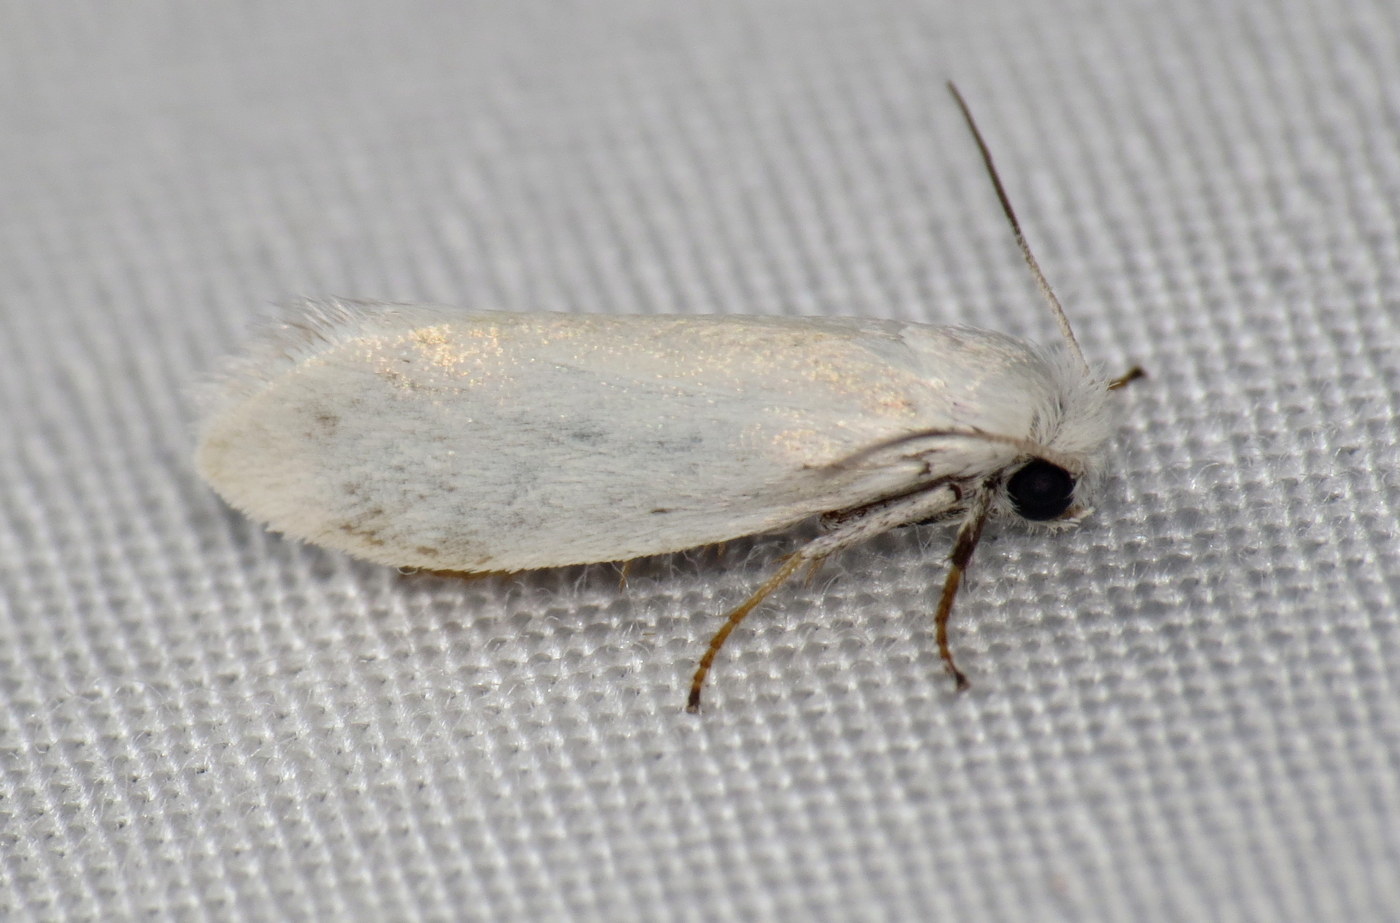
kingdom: Animalia
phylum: Arthropoda
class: Insecta
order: Lepidoptera
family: Prodoxidae
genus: Prodoxus
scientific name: Prodoxus decipiens
